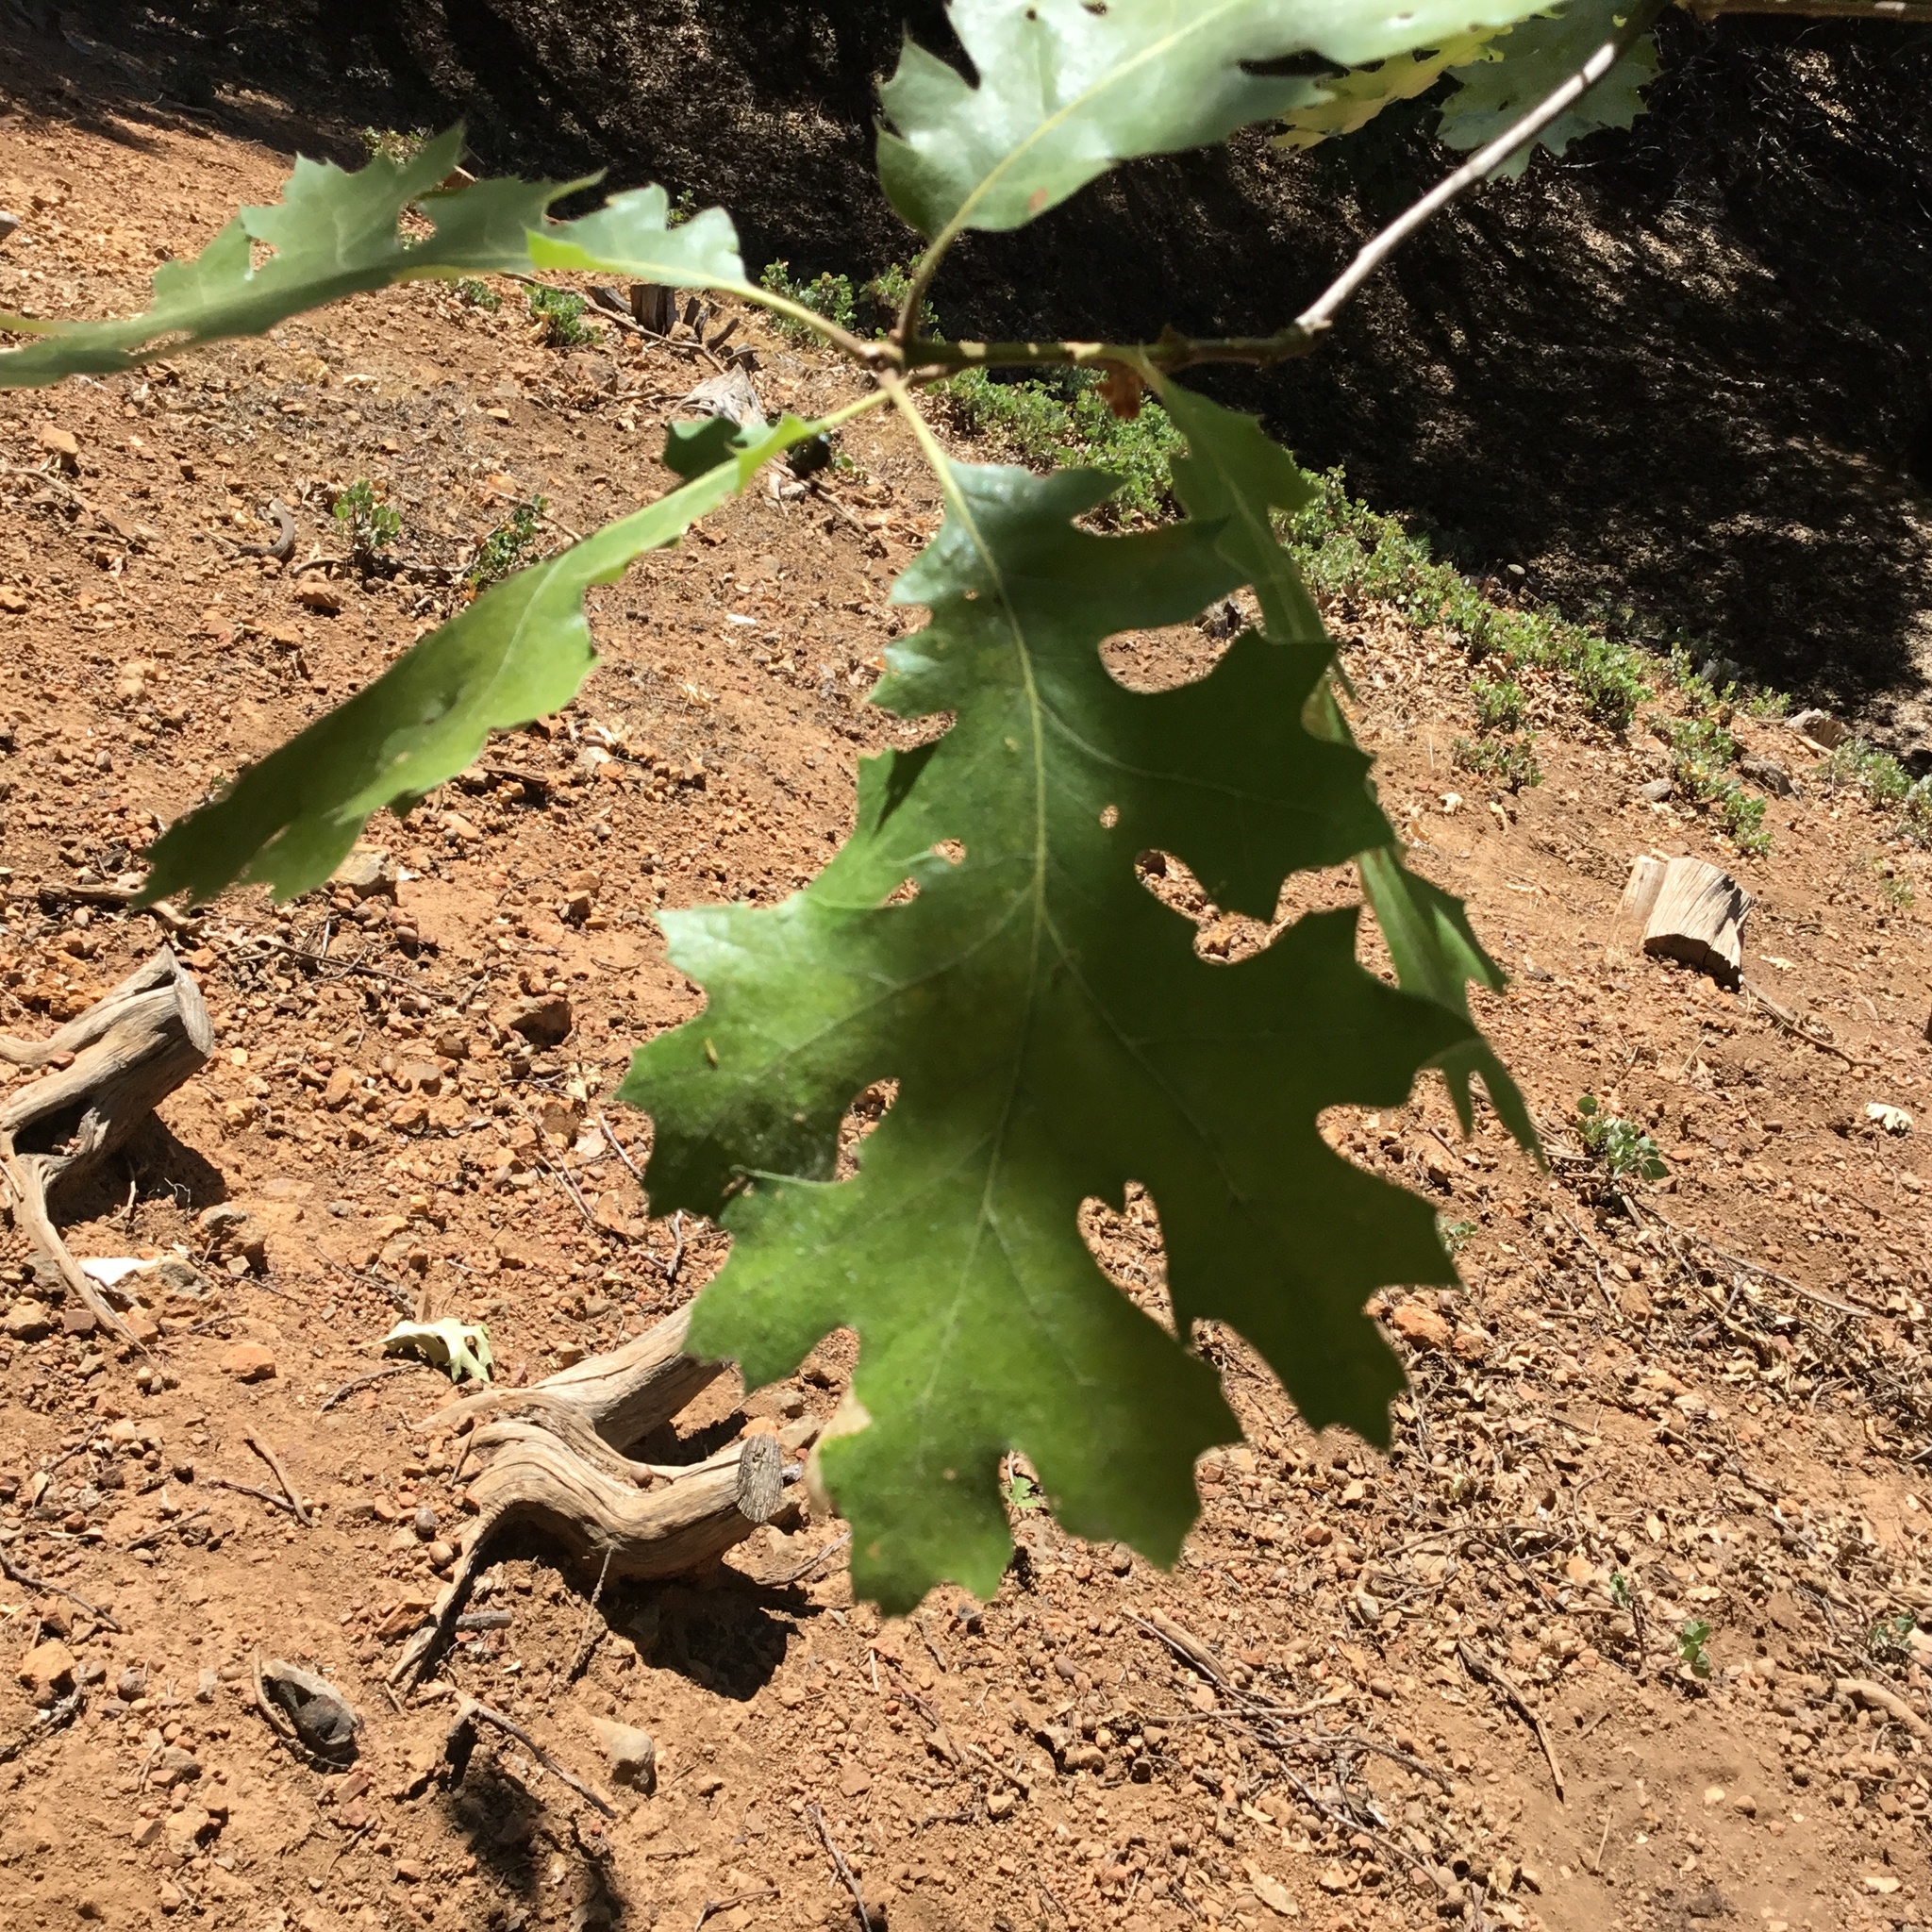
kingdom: Plantae
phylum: Tracheophyta
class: Magnoliopsida
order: Fagales
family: Fagaceae
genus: Quercus
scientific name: Quercus kelloggii
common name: California black oak
